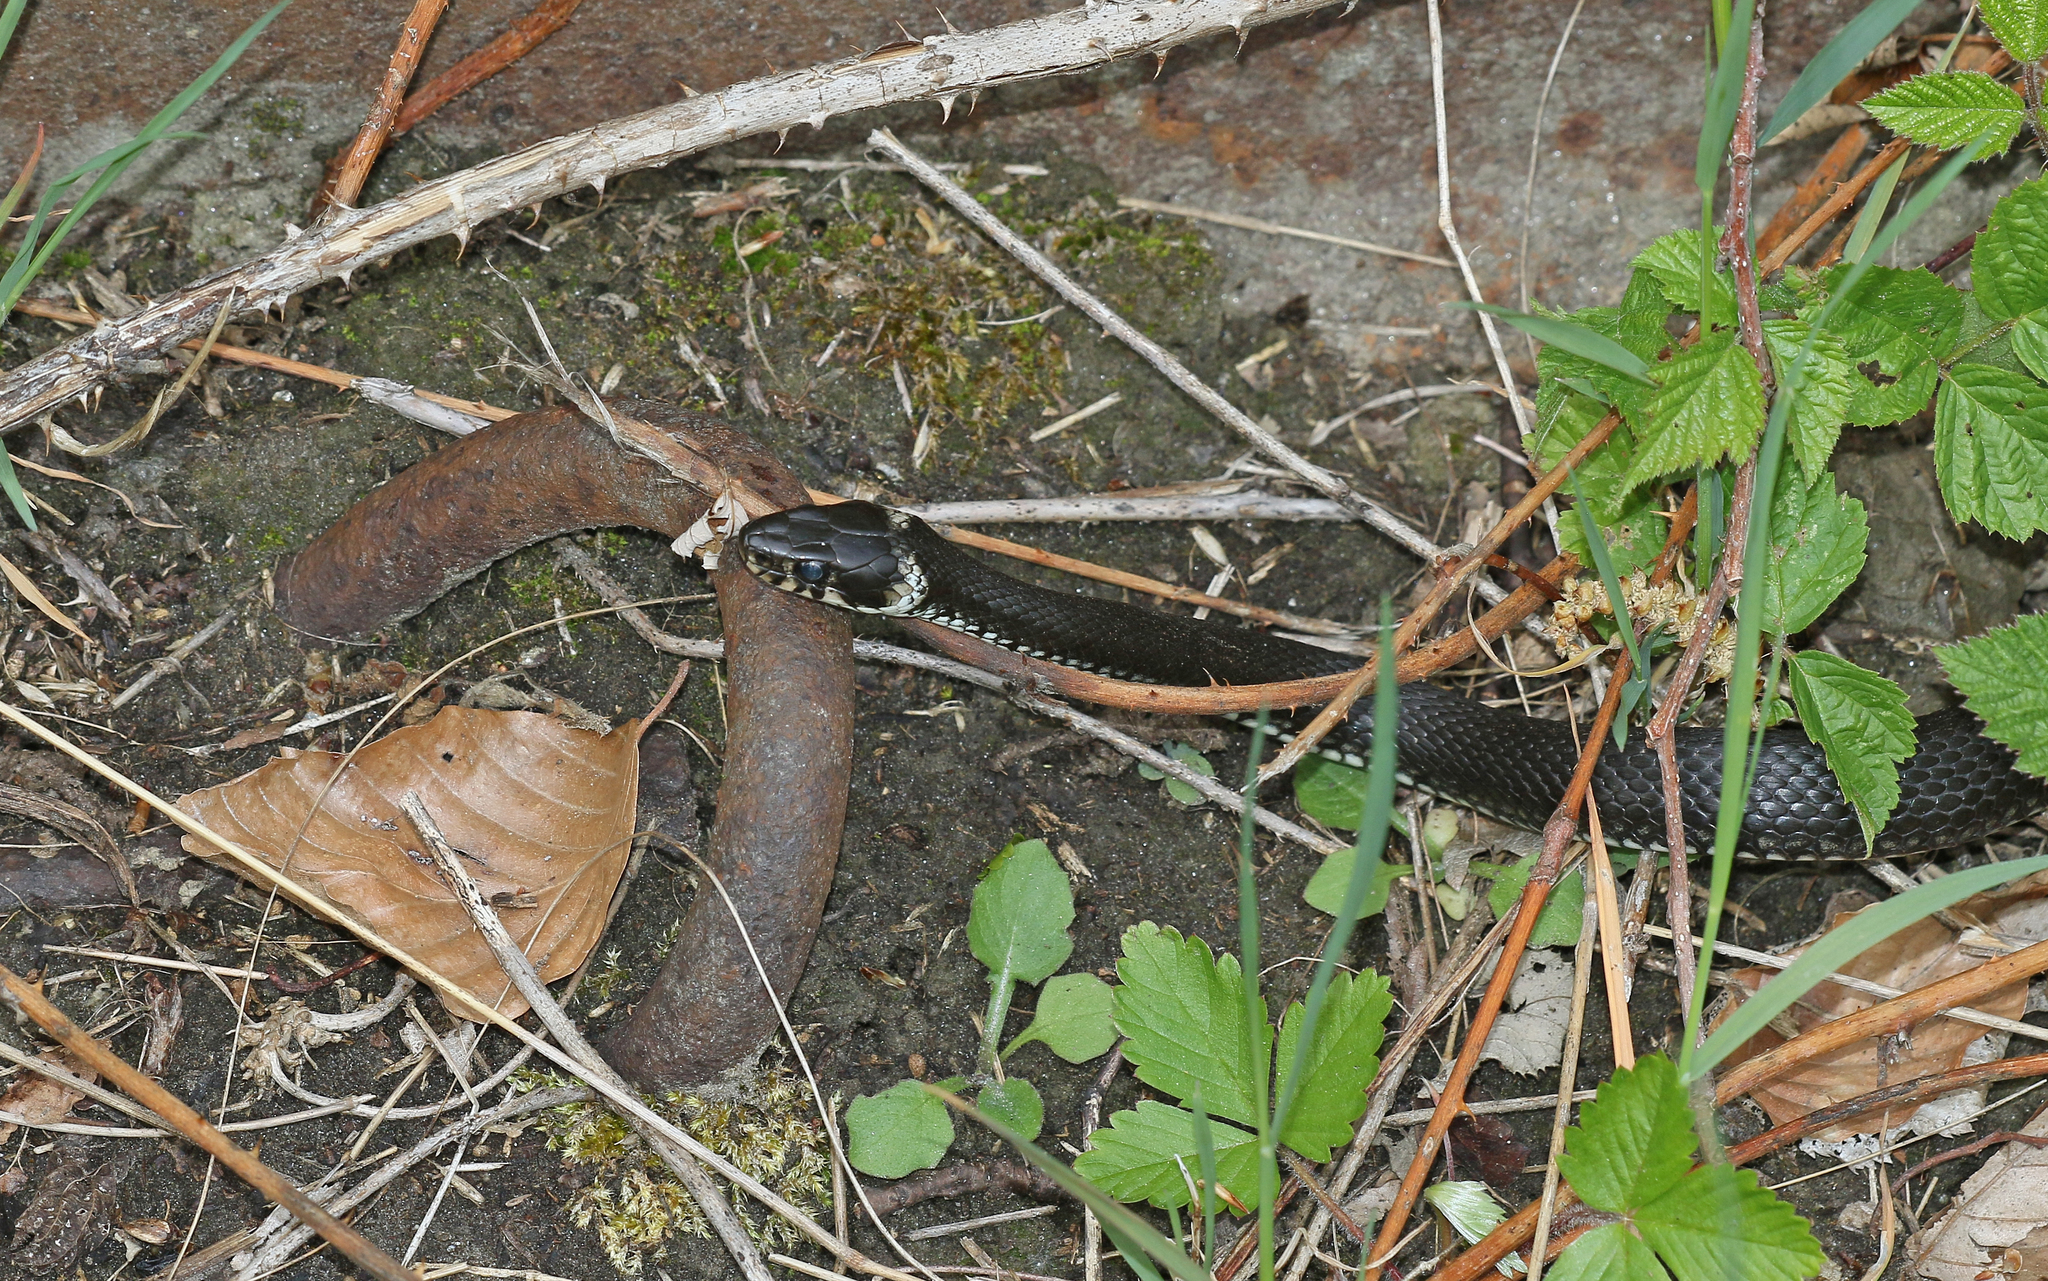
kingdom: Animalia
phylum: Chordata
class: Squamata
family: Colubridae
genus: Natrix
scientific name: Natrix natrix
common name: Grass snake
